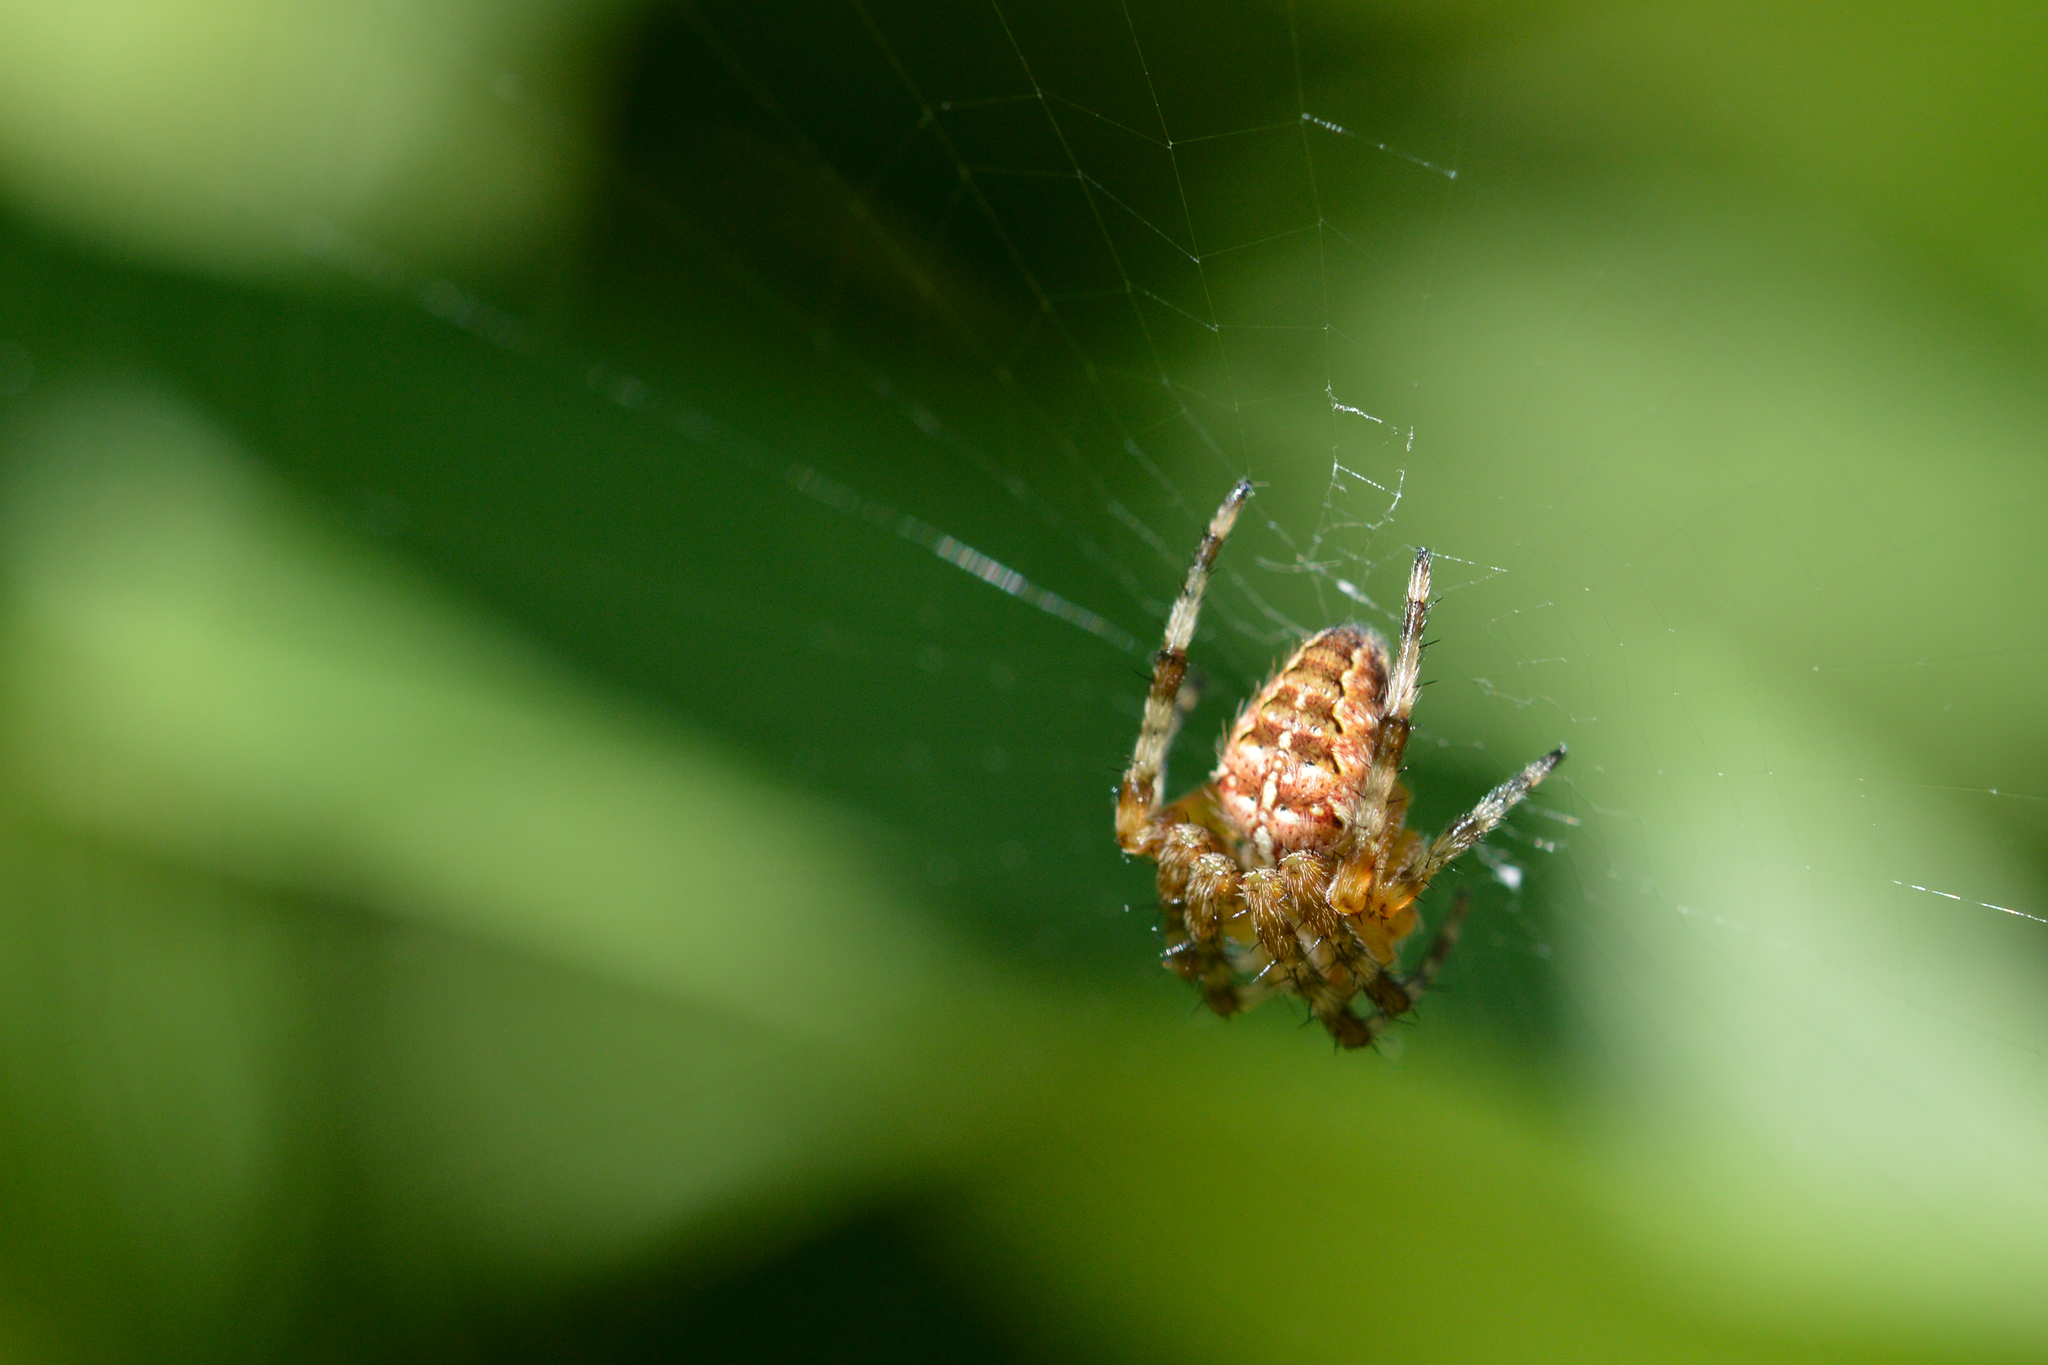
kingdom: Animalia
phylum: Arthropoda
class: Arachnida
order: Araneae
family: Araneidae
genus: Araneus
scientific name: Araneus diadematus
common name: Cross orbweaver
